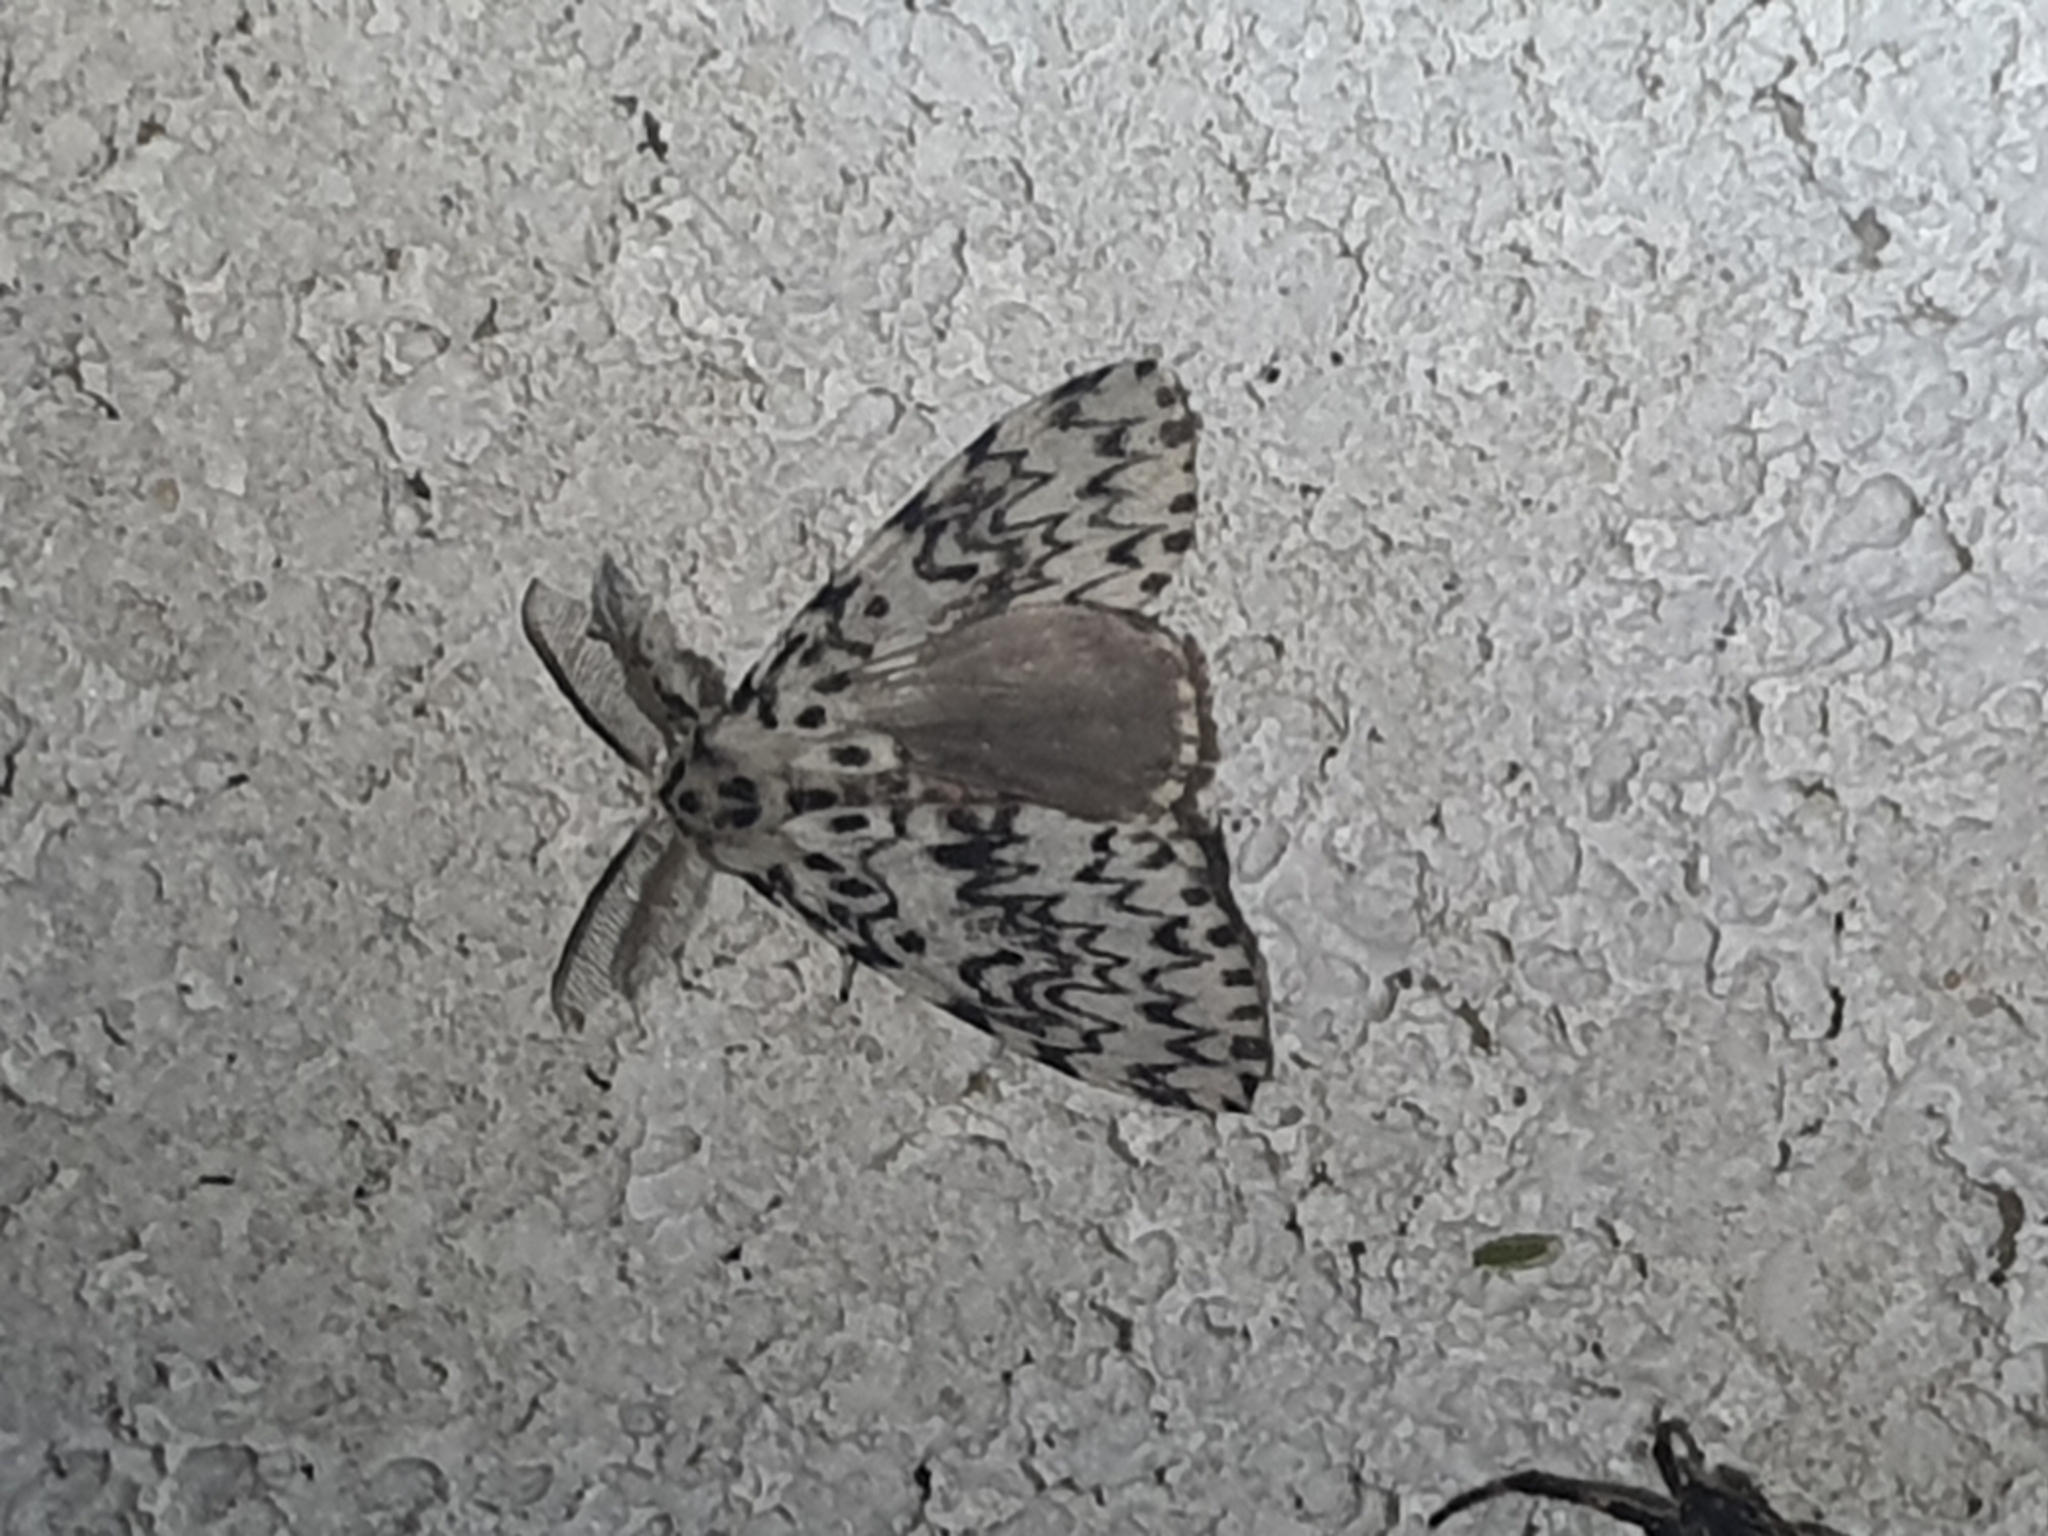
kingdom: Animalia
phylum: Arthropoda
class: Insecta
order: Lepidoptera
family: Erebidae
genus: Lymantria
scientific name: Lymantria monacha
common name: Black arches
